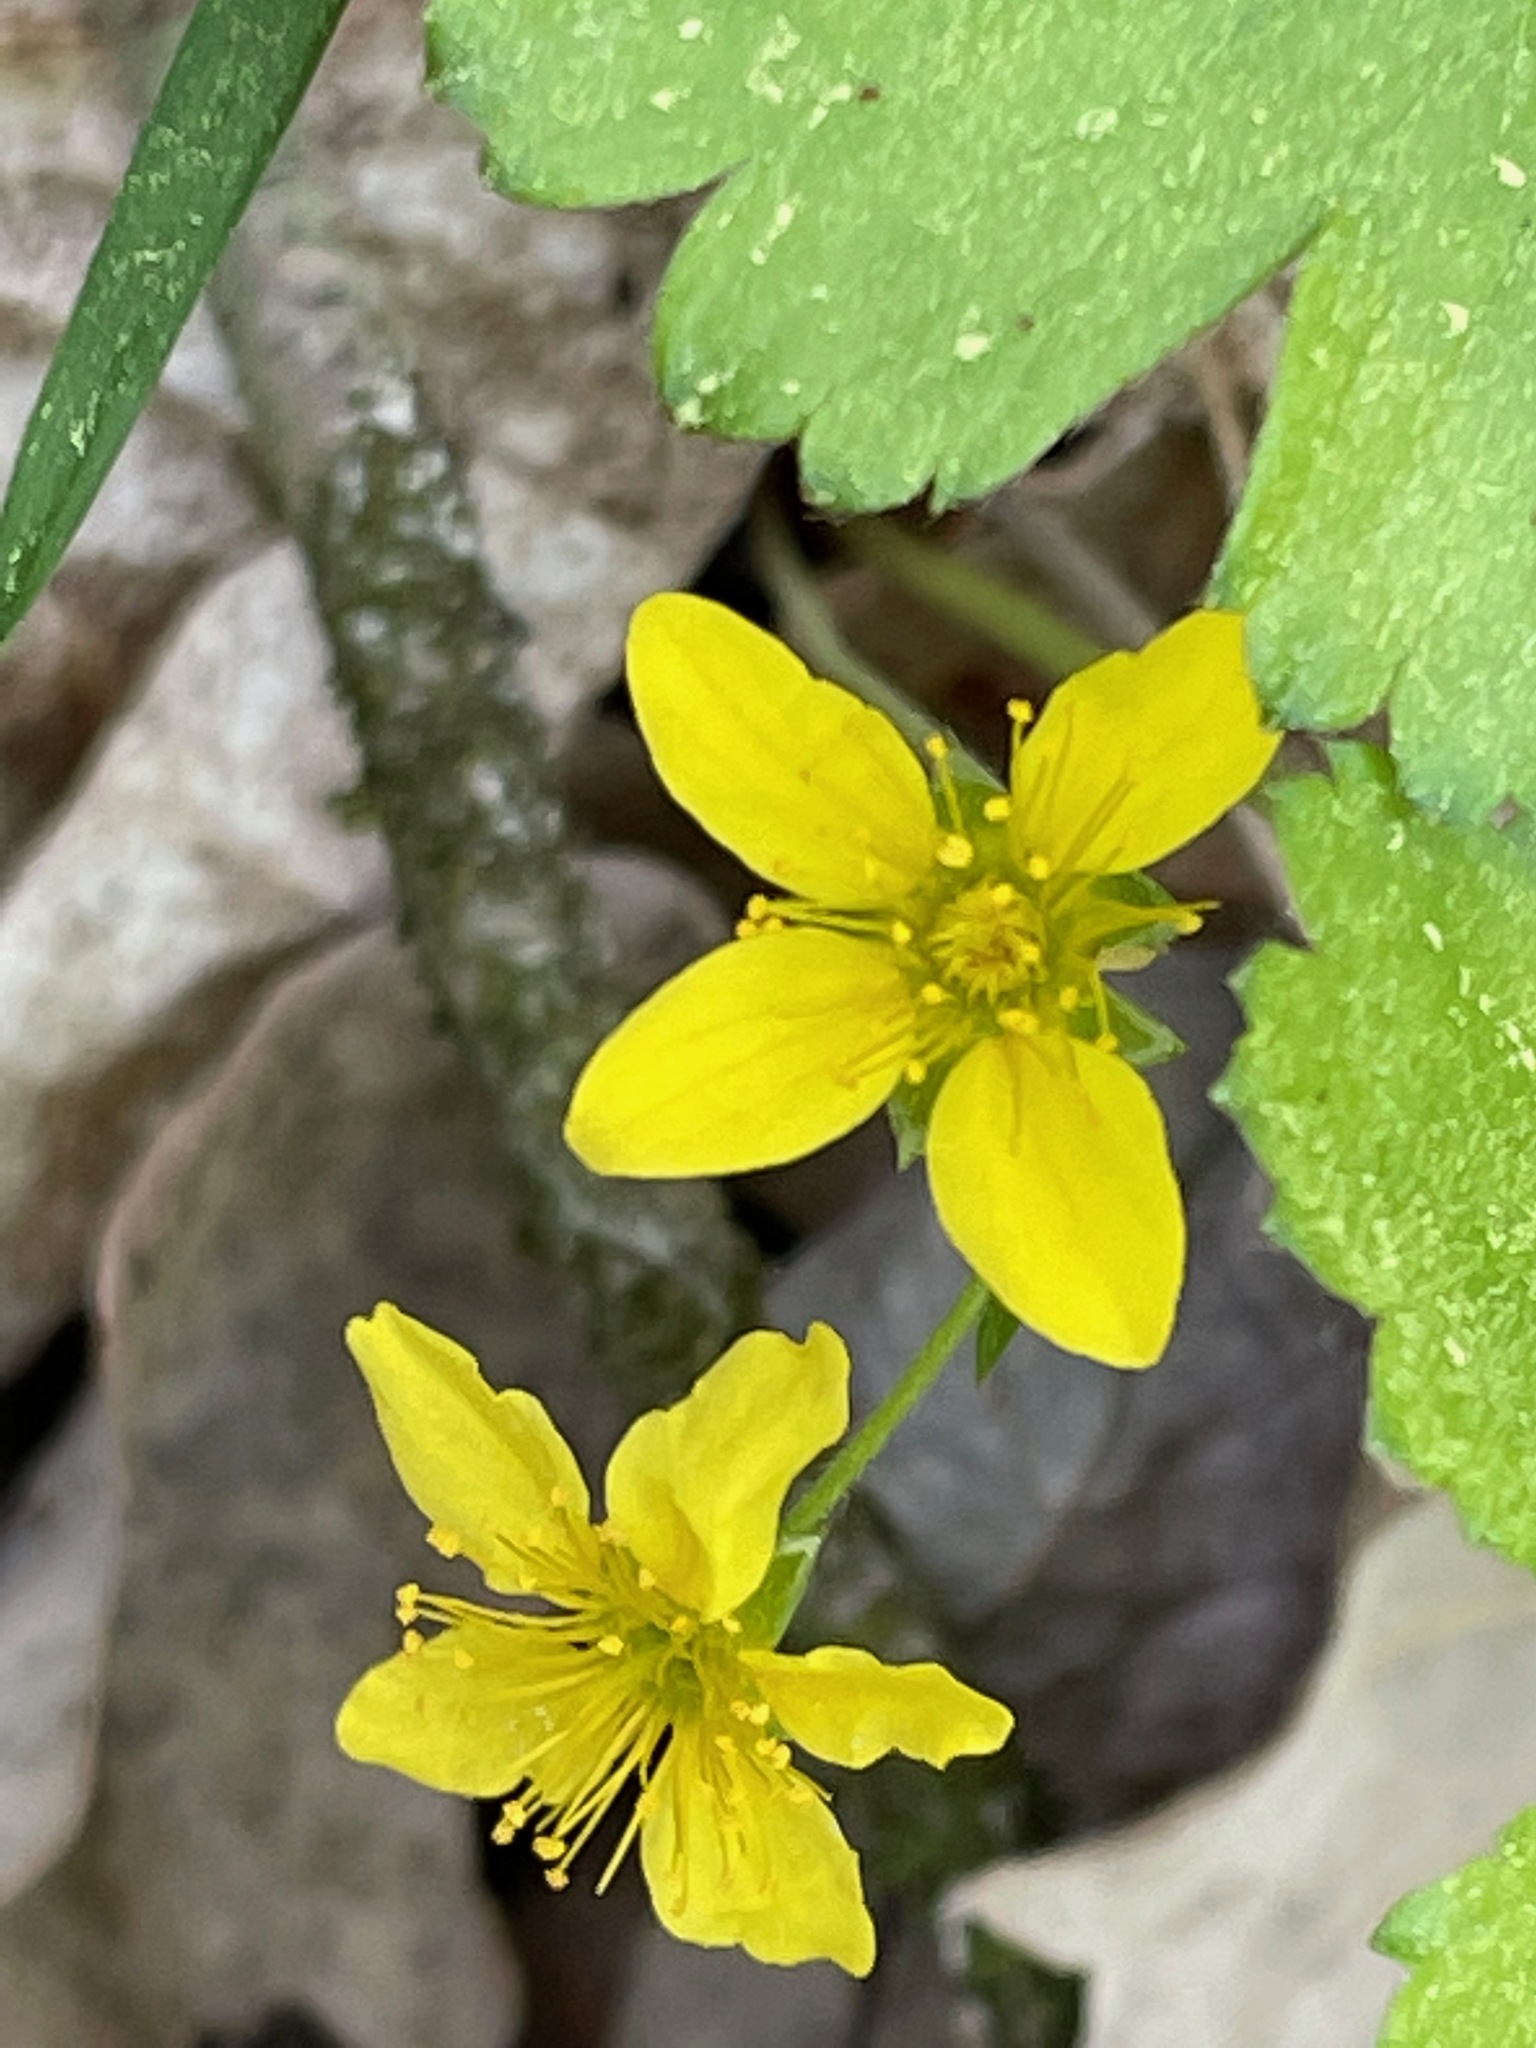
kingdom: Plantae
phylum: Tracheophyta
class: Magnoliopsida
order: Rosales
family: Rosaceae
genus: Geum
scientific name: Geum fragarioides
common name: Appalachian barren strawberry
